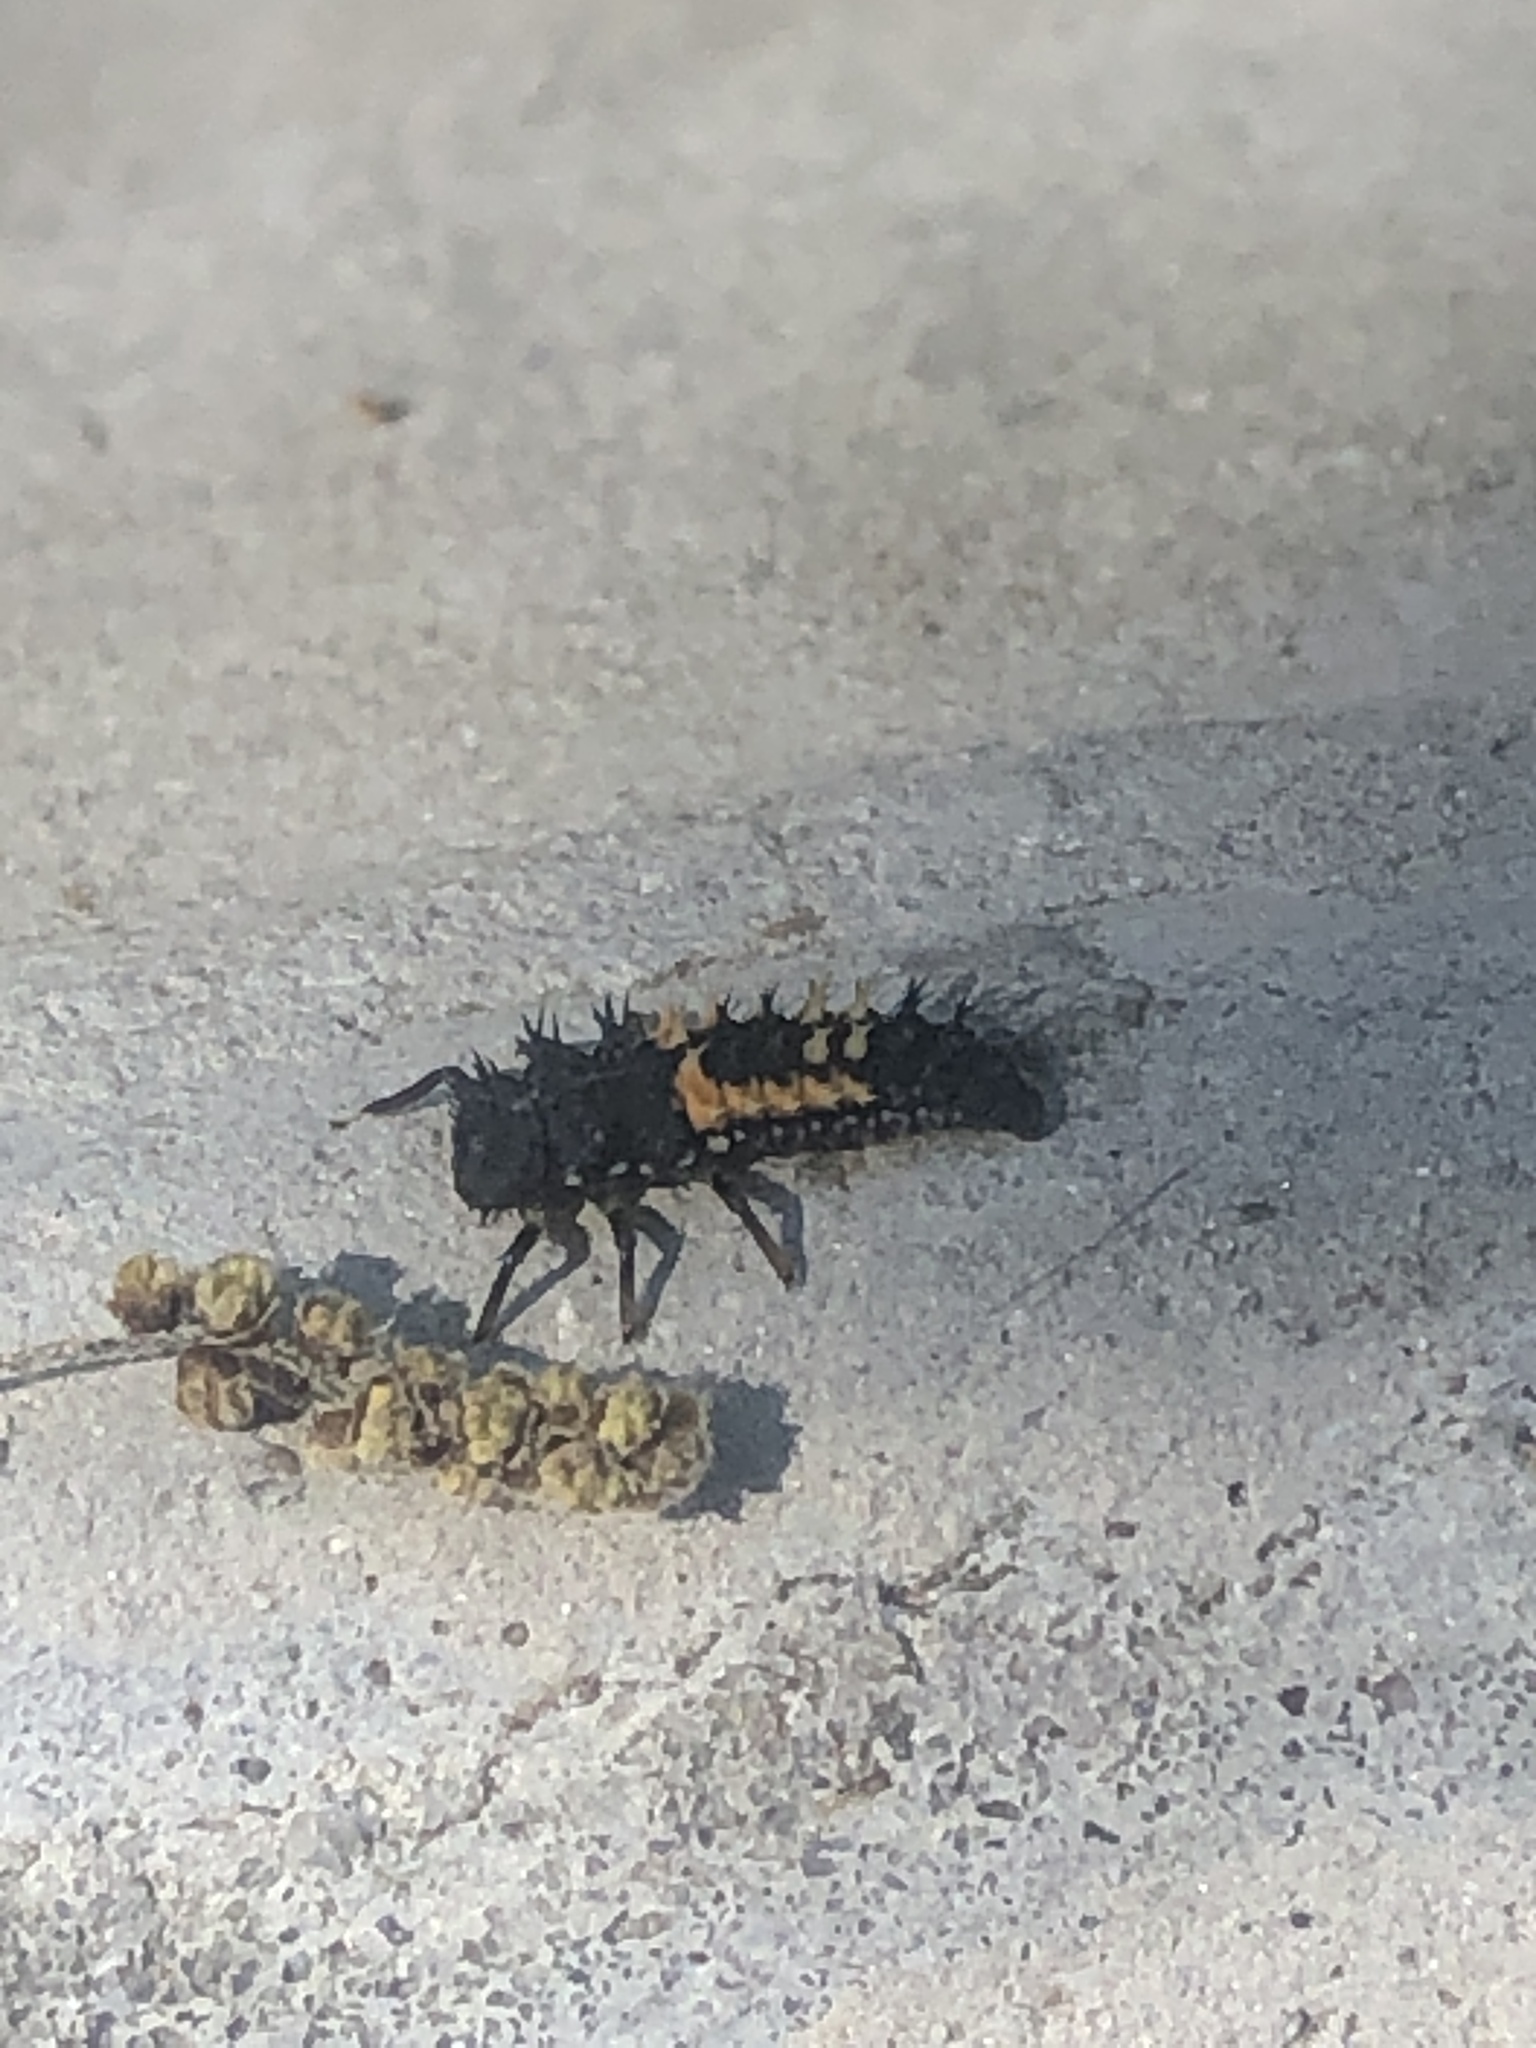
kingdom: Animalia
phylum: Arthropoda
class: Insecta
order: Coleoptera
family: Coccinellidae
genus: Harmonia
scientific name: Harmonia axyridis
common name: Harlequin ladybird
